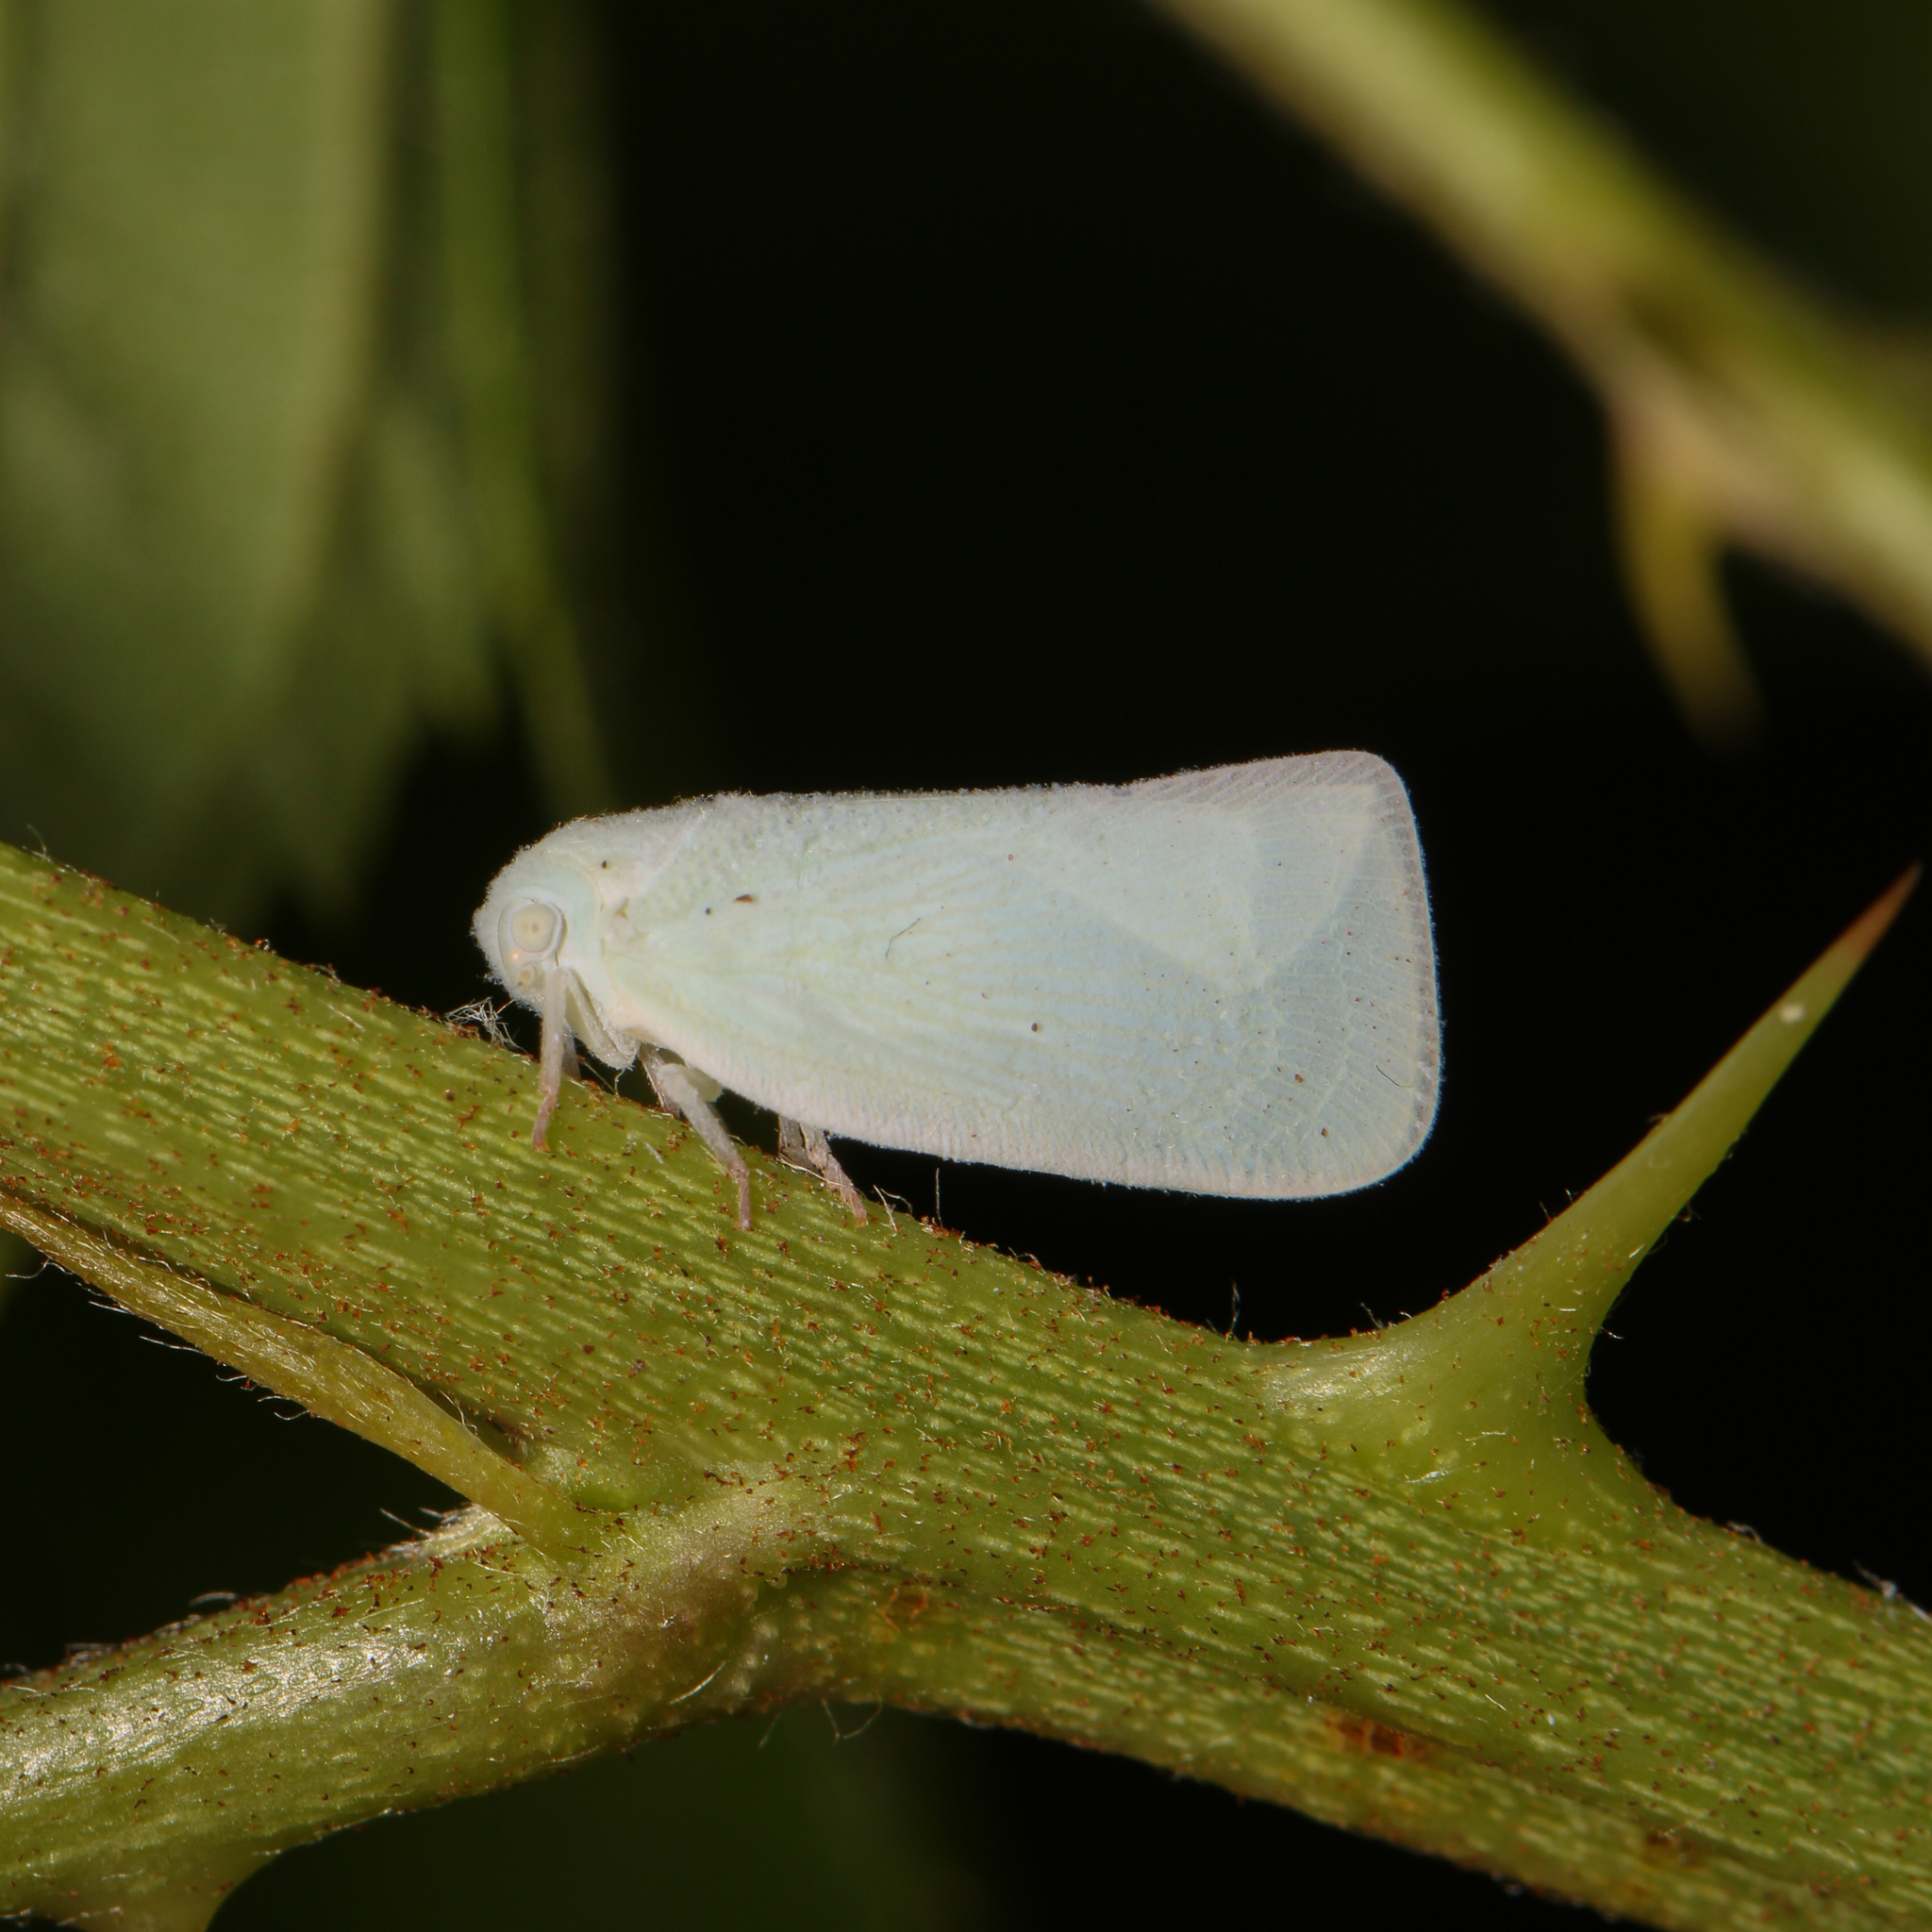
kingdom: Animalia
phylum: Arthropoda
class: Insecta
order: Hemiptera
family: Flatidae
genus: Flatormenis
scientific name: Flatormenis proxima
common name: Northern flatid planthopper
